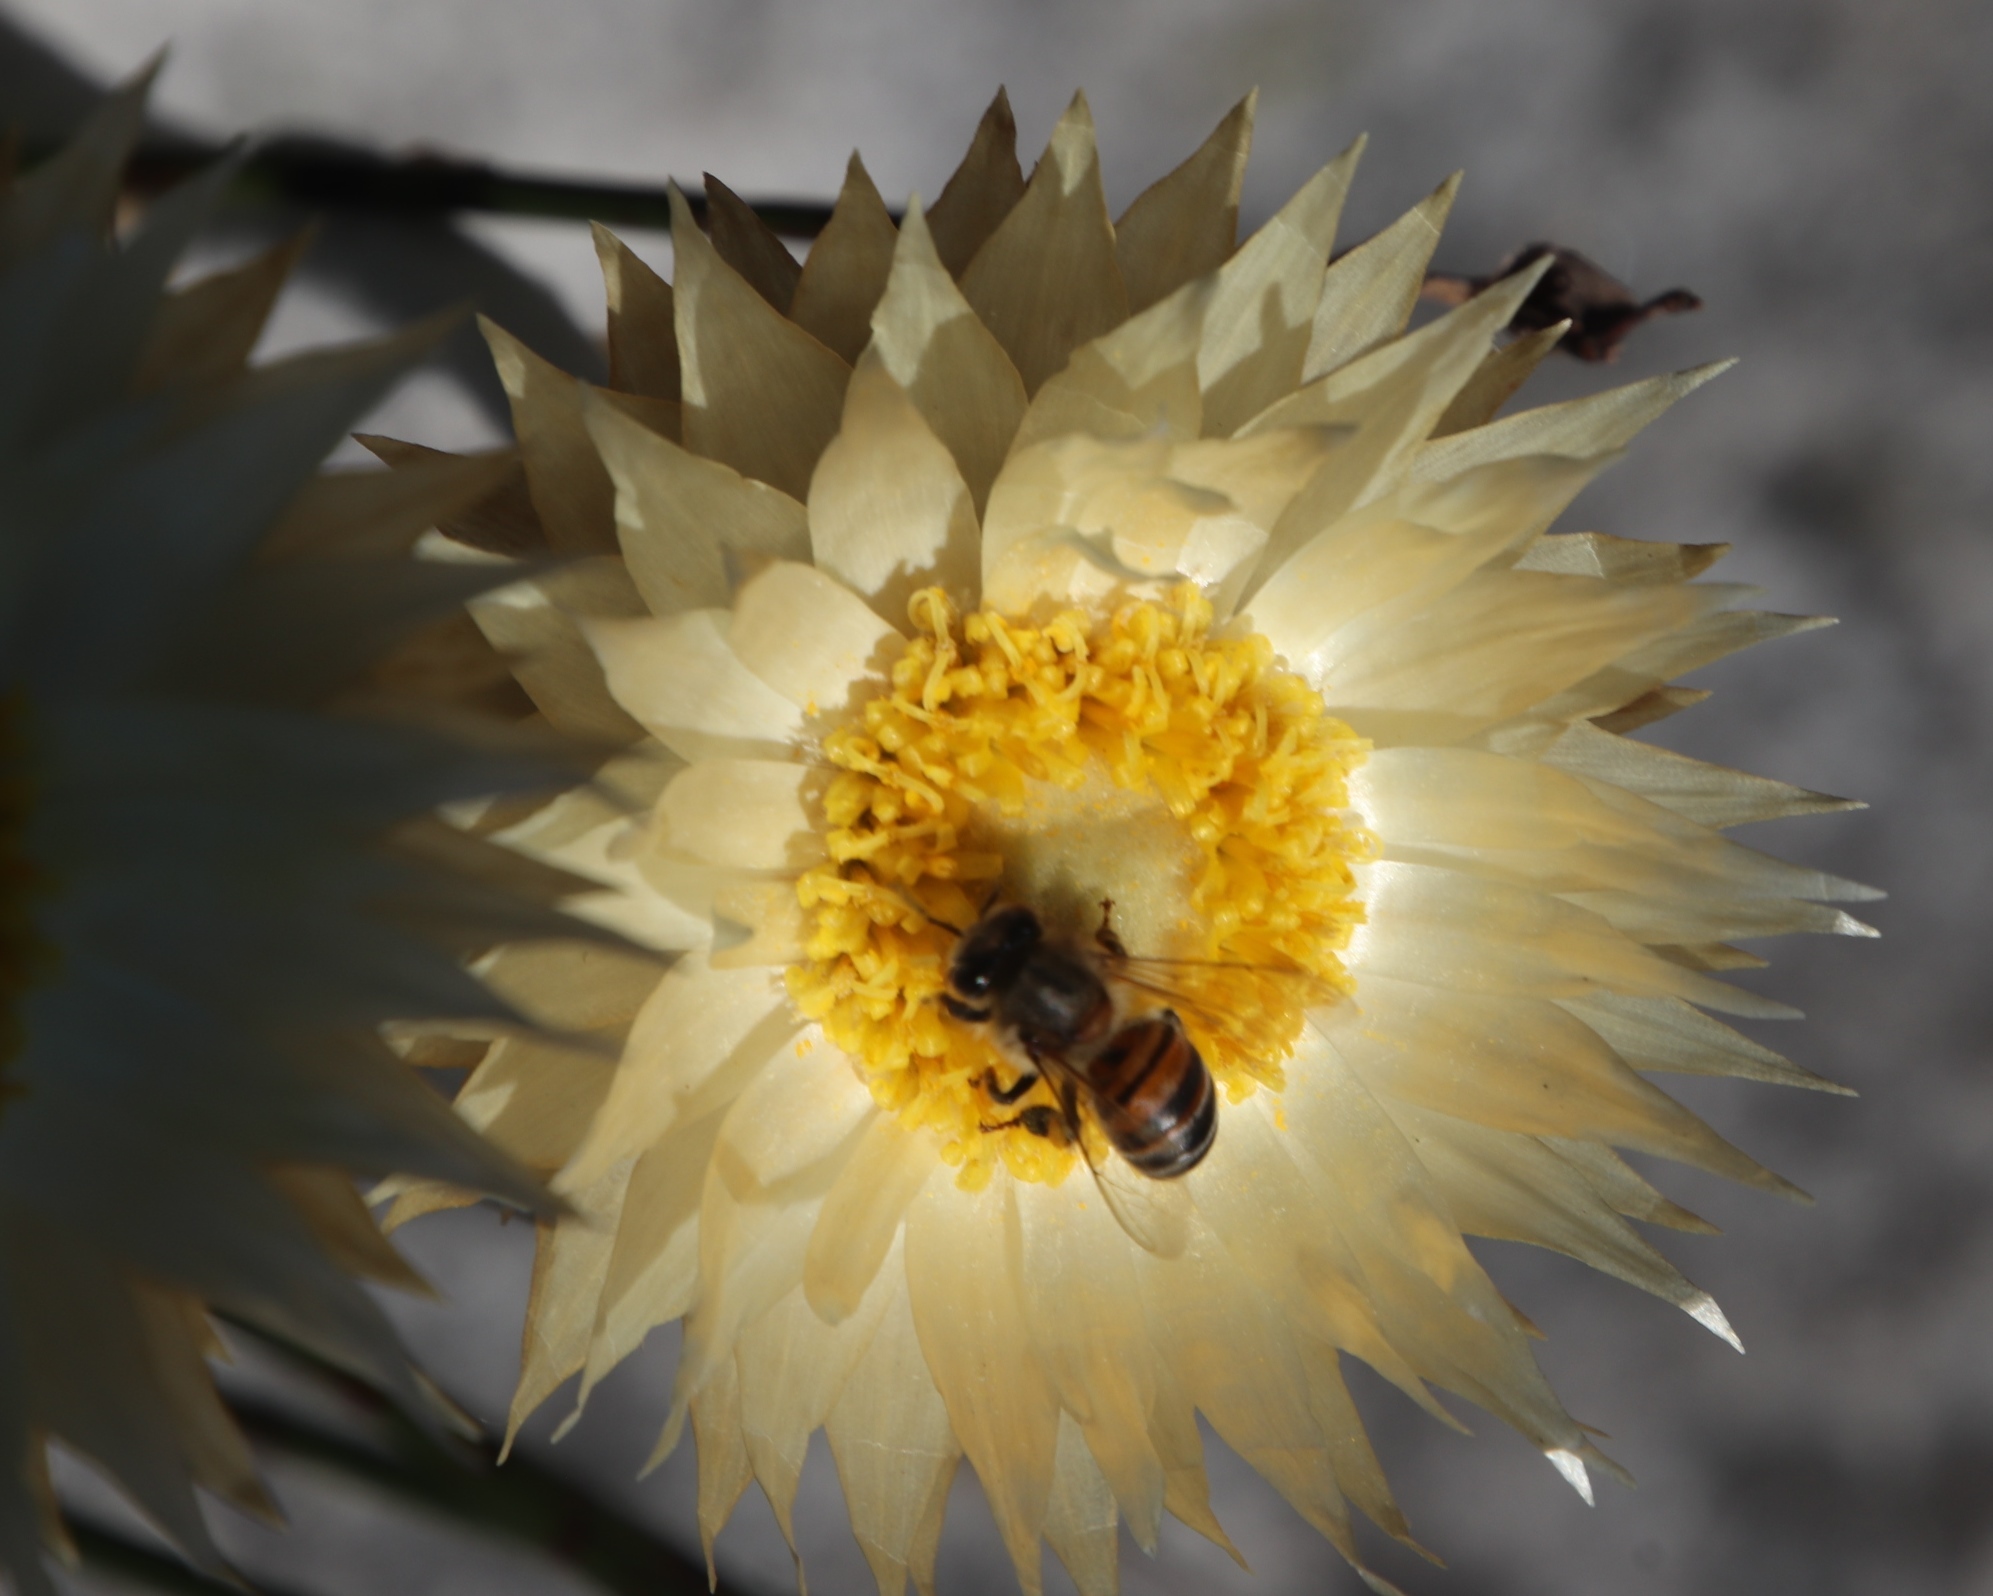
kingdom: Animalia
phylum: Arthropoda
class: Insecta
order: Hymenoptera
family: Apidae
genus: Apis
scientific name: Apis mellifera
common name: Honey bee
